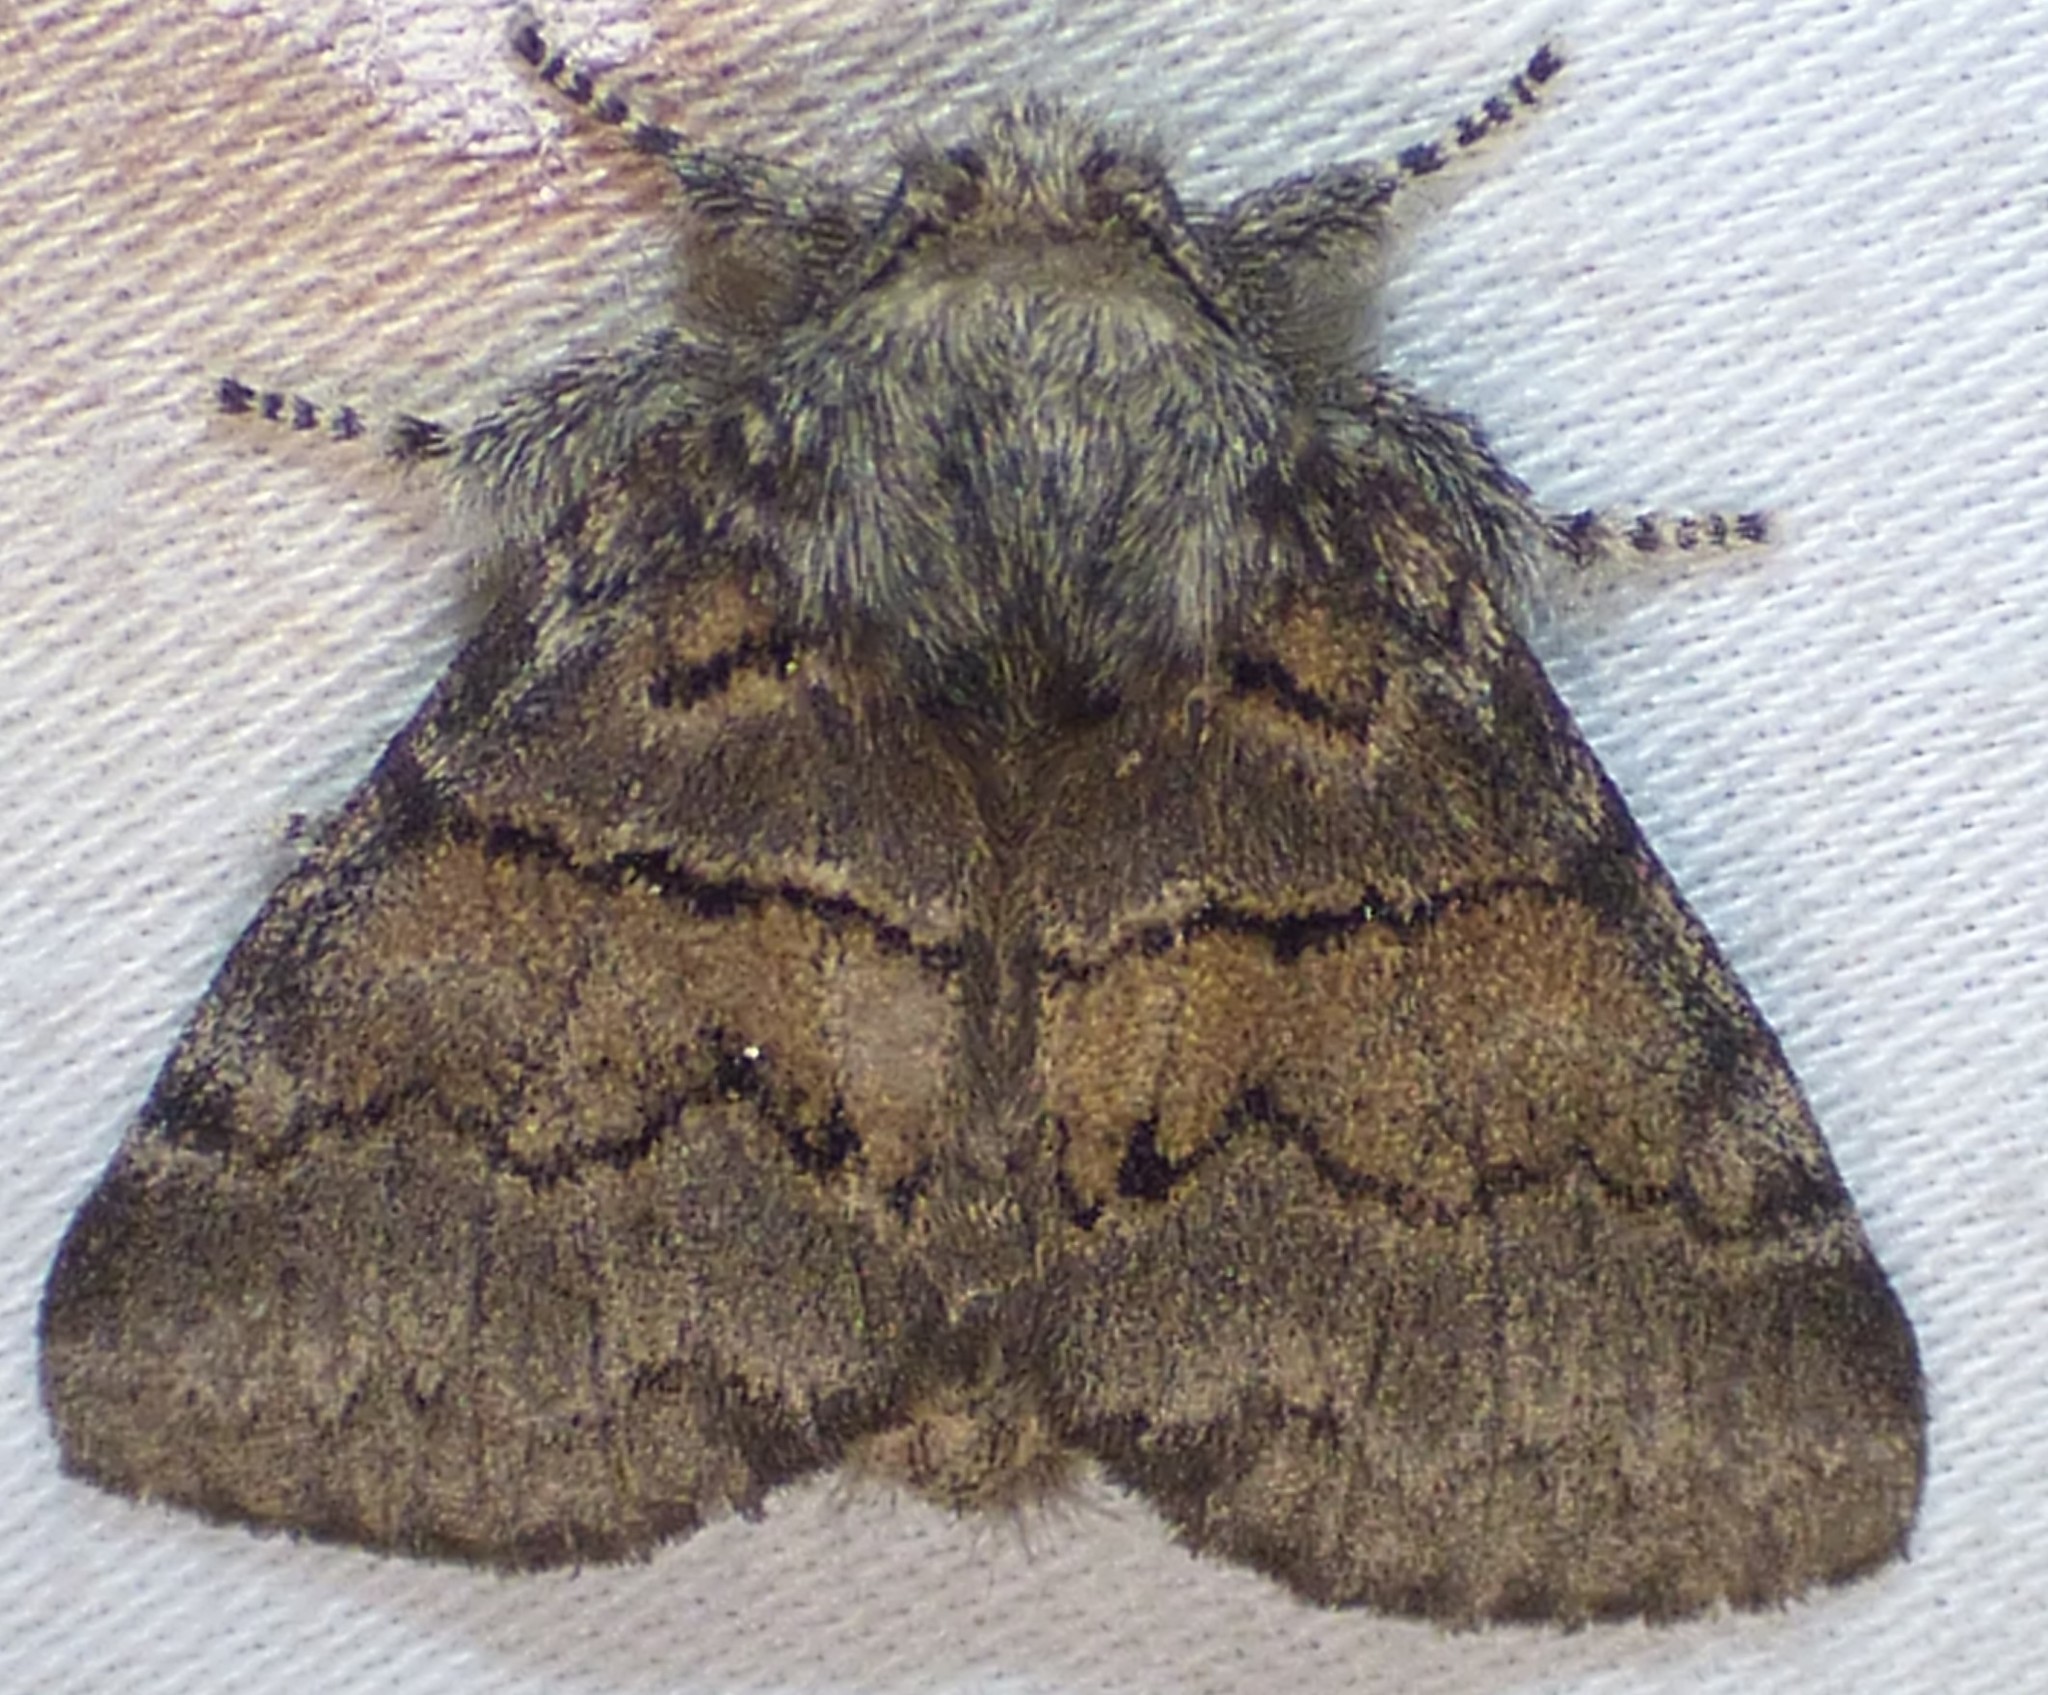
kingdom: Animalia
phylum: Arthropoda
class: Insecta
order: Lepidoptera
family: Notodontidae
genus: Gluphisia
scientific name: Gluphisia septentrionis
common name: Common gluphisia
